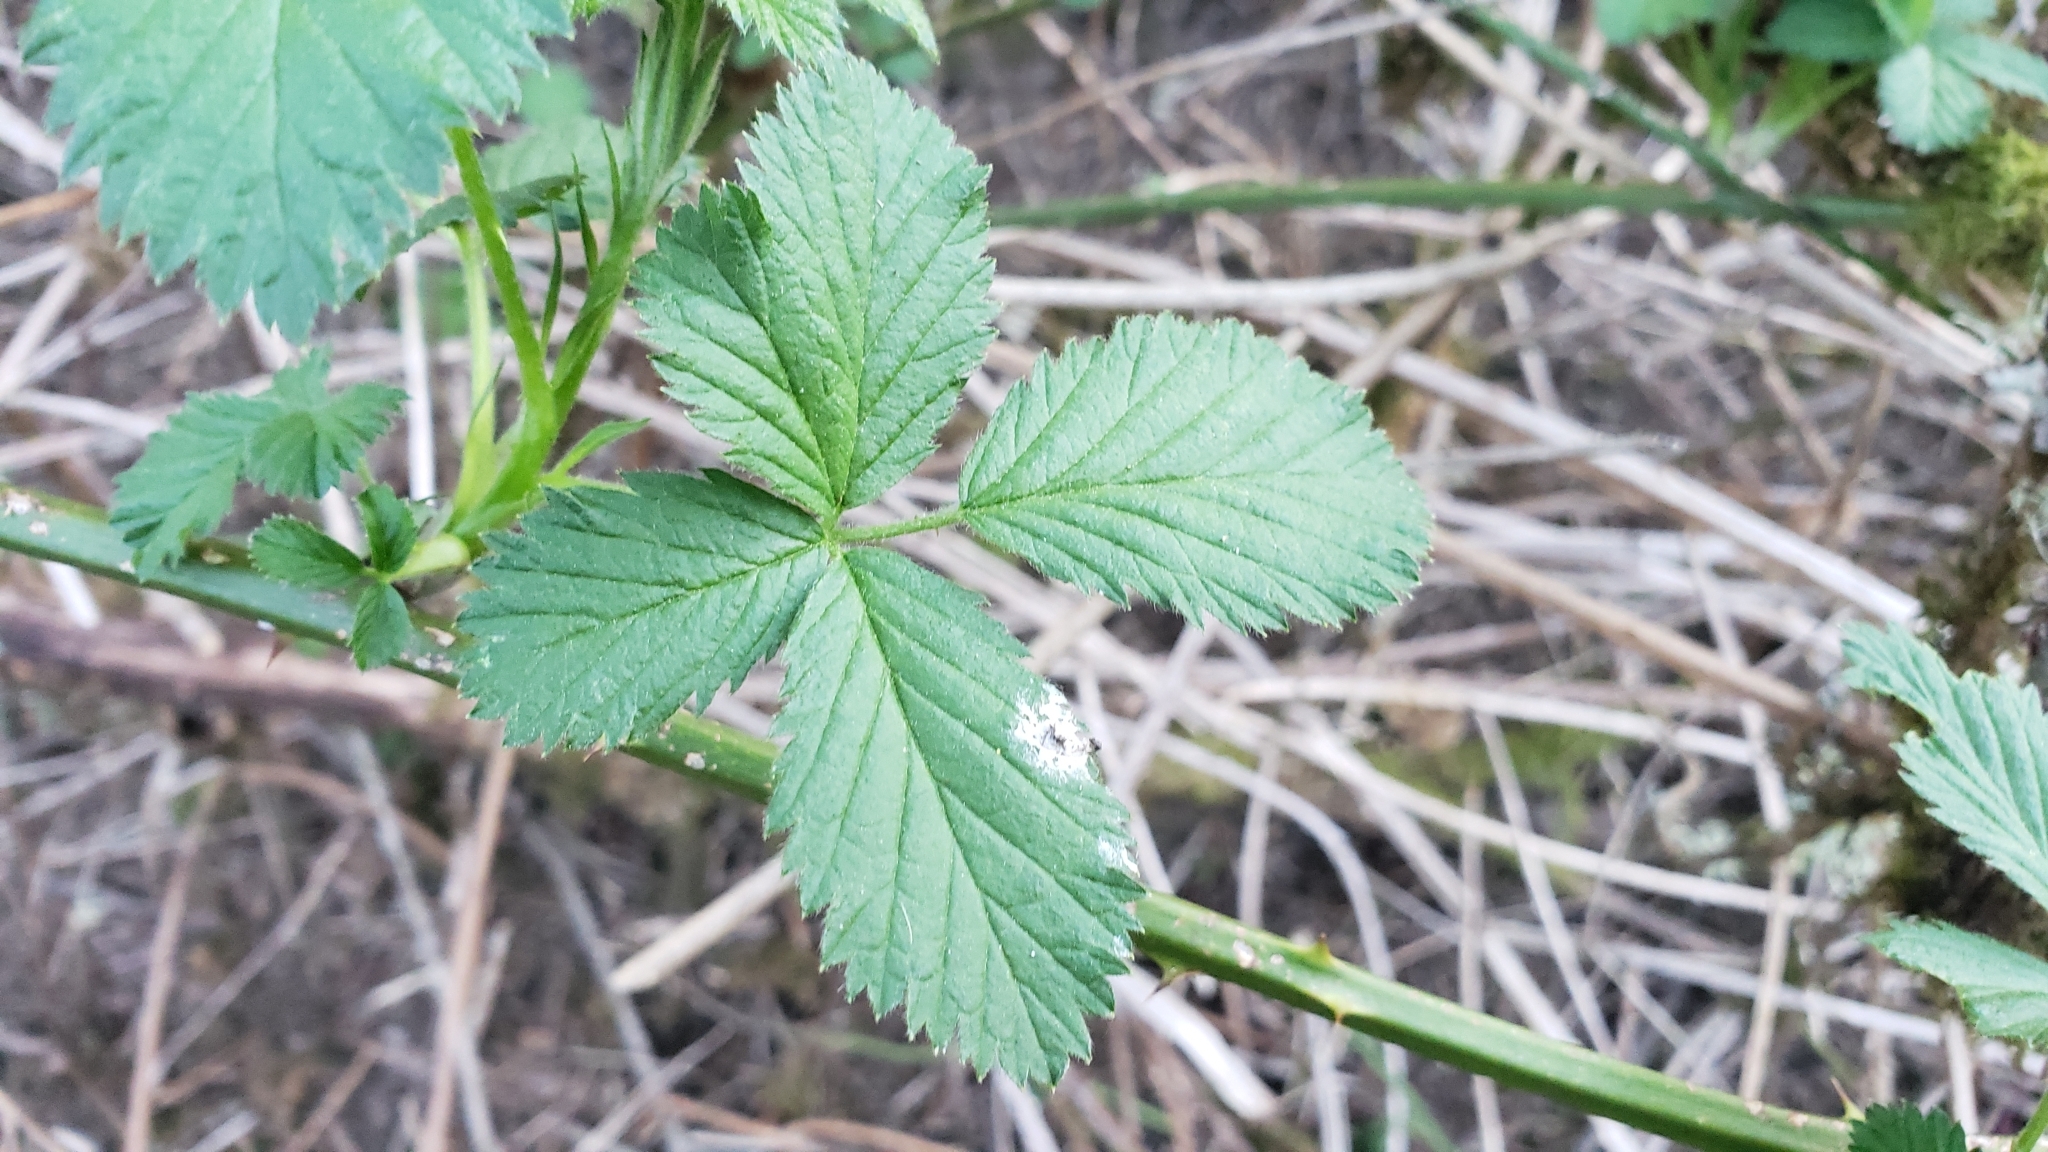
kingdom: Plantae
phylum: Tracheophyta
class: Magnoliopsida
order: Rosales
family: Rosaceae
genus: Rubus
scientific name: Rubus bifrons
